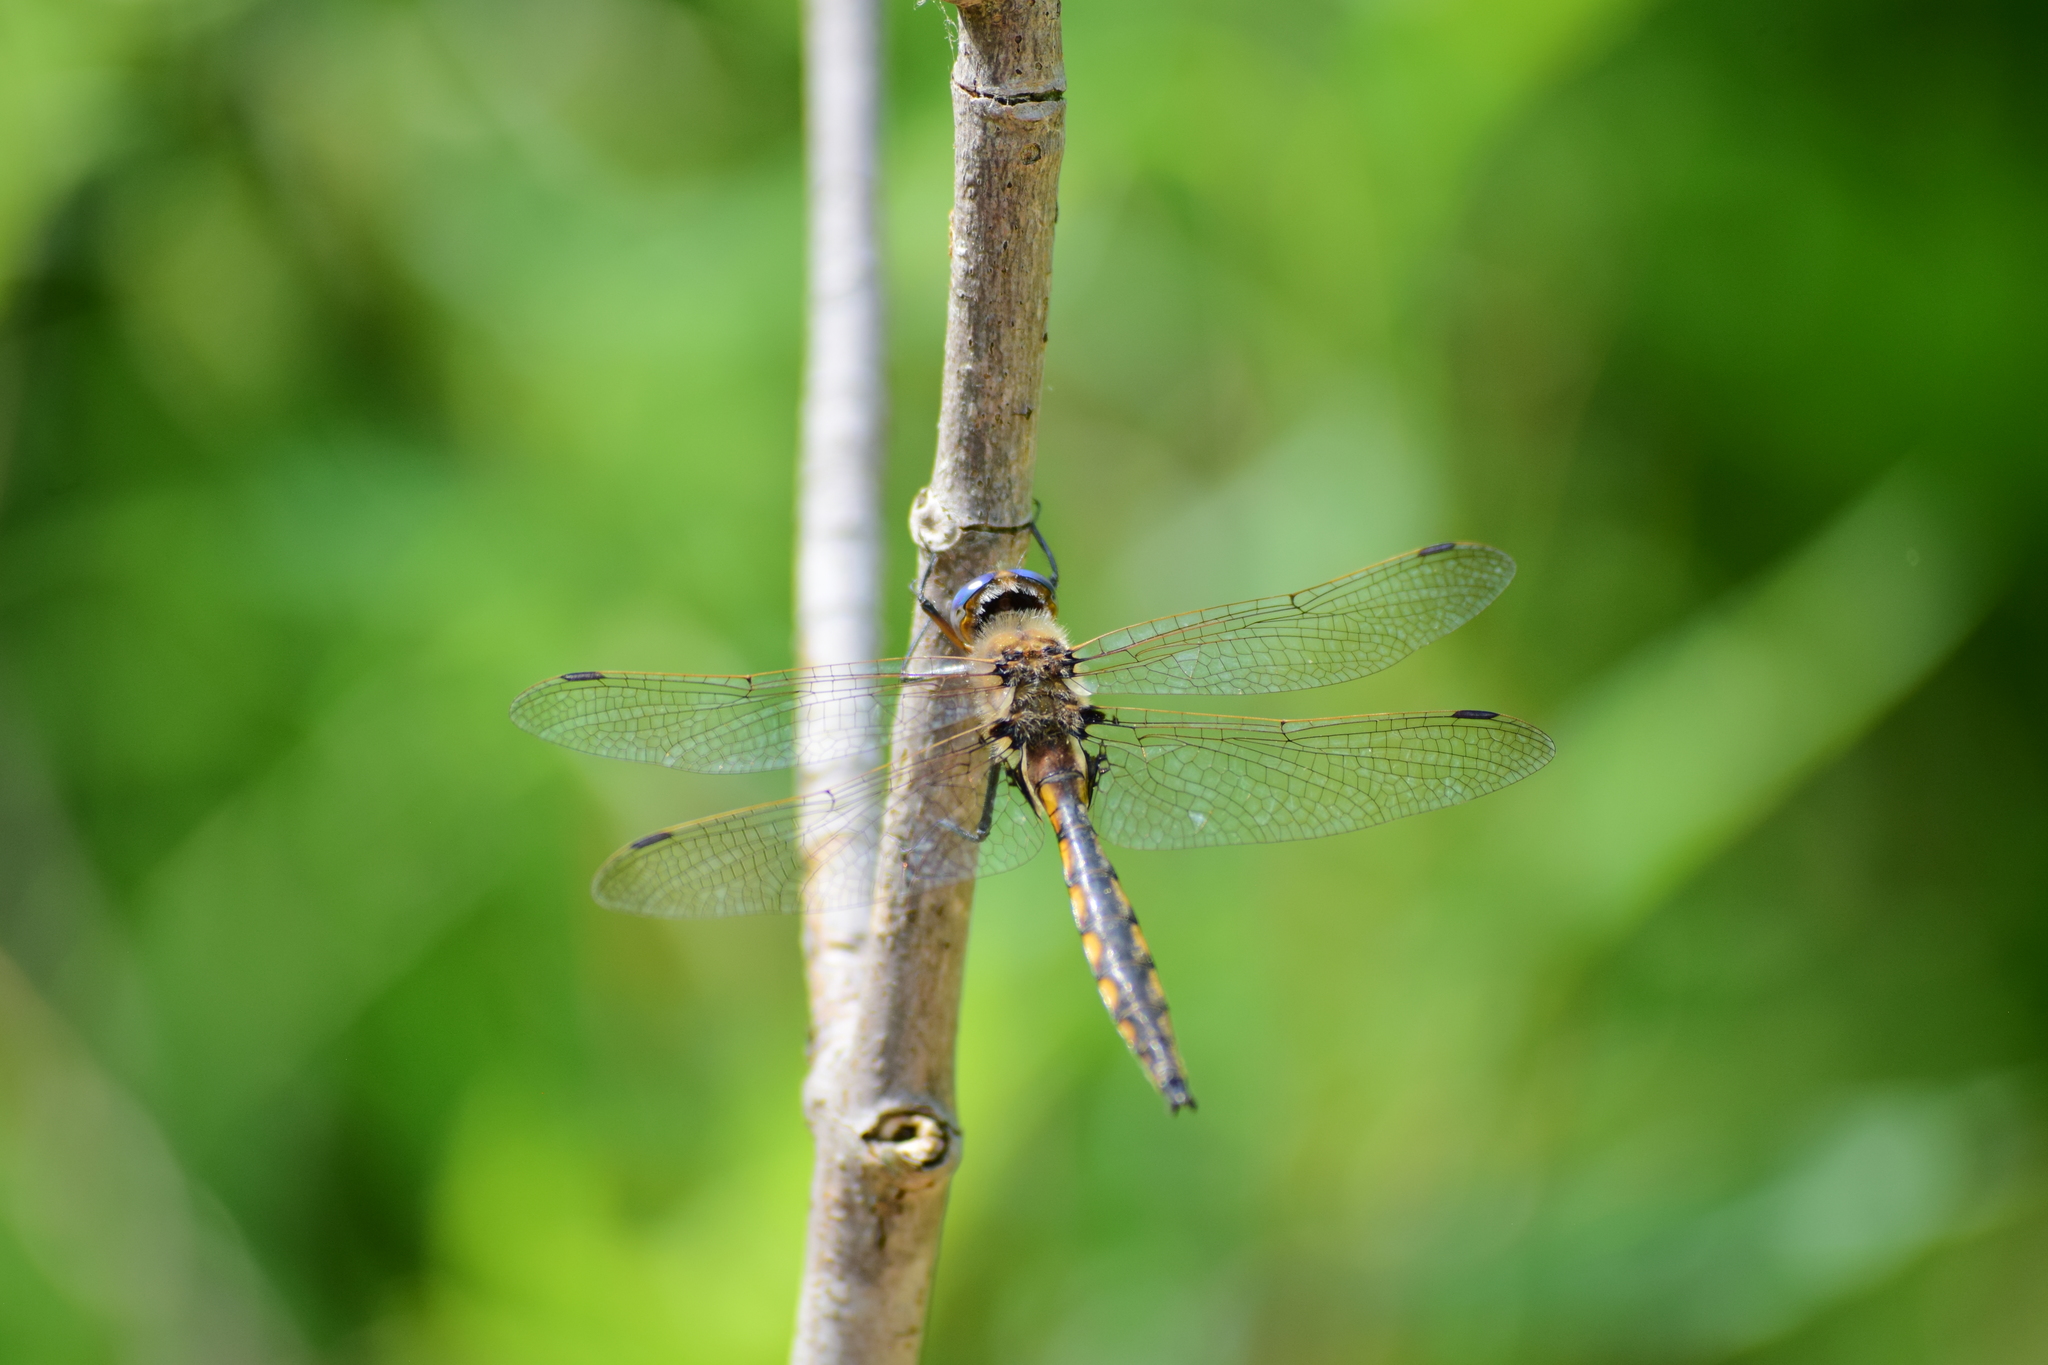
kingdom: Animalia
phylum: Arthropoda
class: Insecta
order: Odonata
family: Corduliidae
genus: Epitheca
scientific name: Epitheca canis
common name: Beaverpond baskettail
